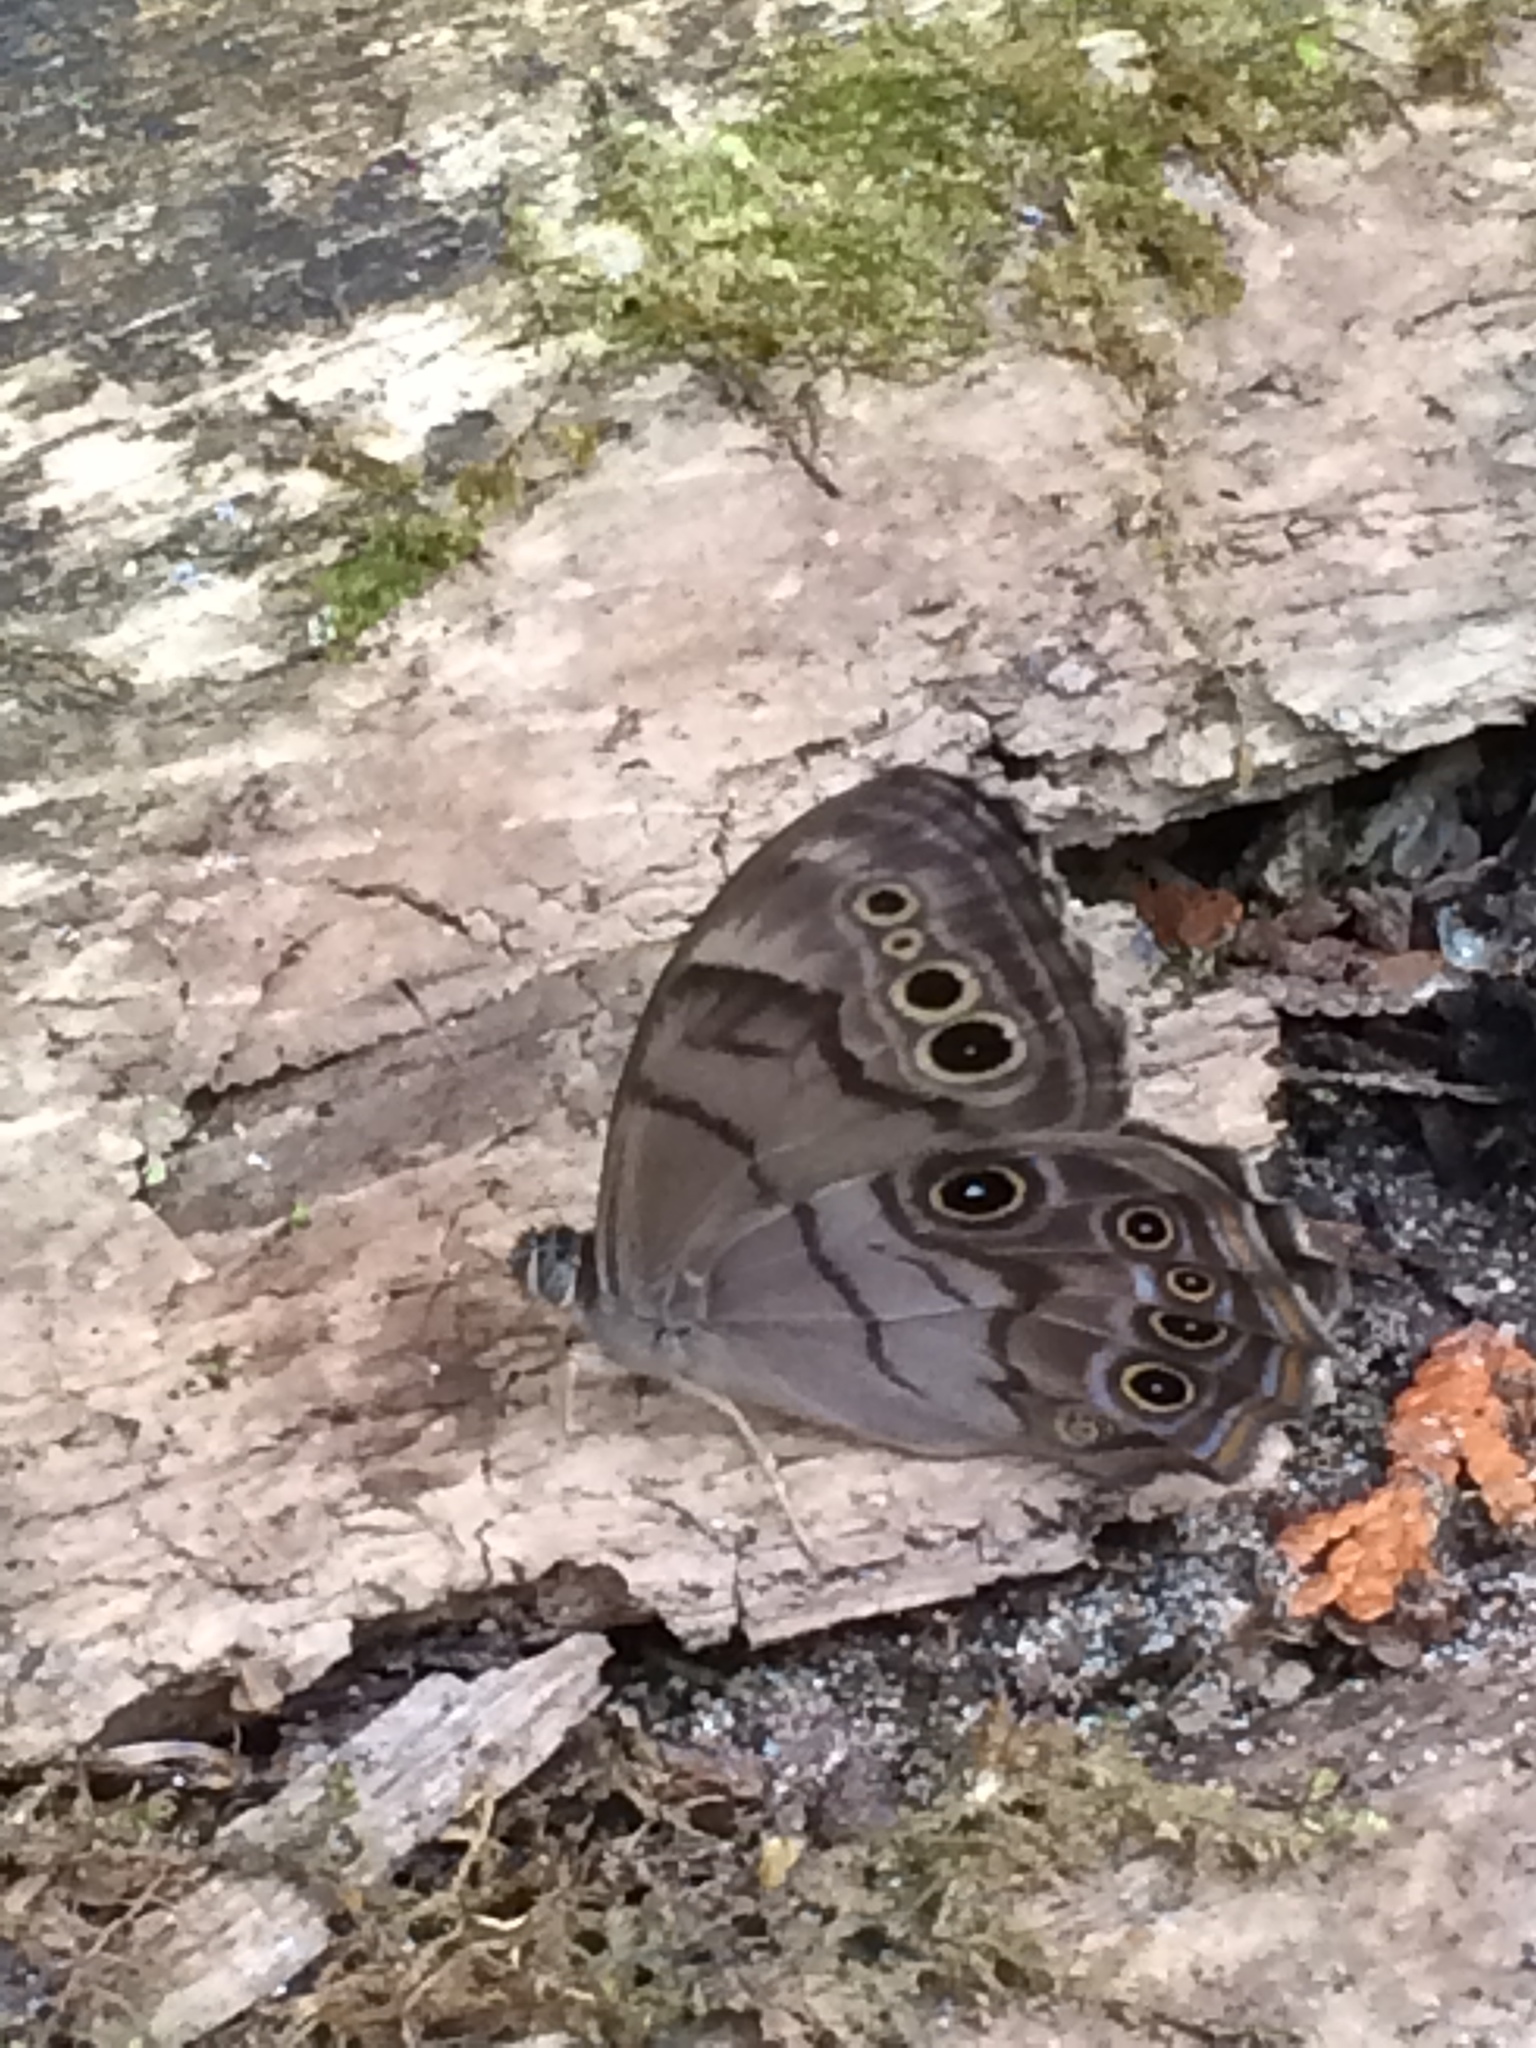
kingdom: Animalia
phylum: Arthropoda
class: Insecta
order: Lepidoptera
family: Nymphalidae
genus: Lethe
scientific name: Lethe anthedon
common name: Northern pearly-eye
